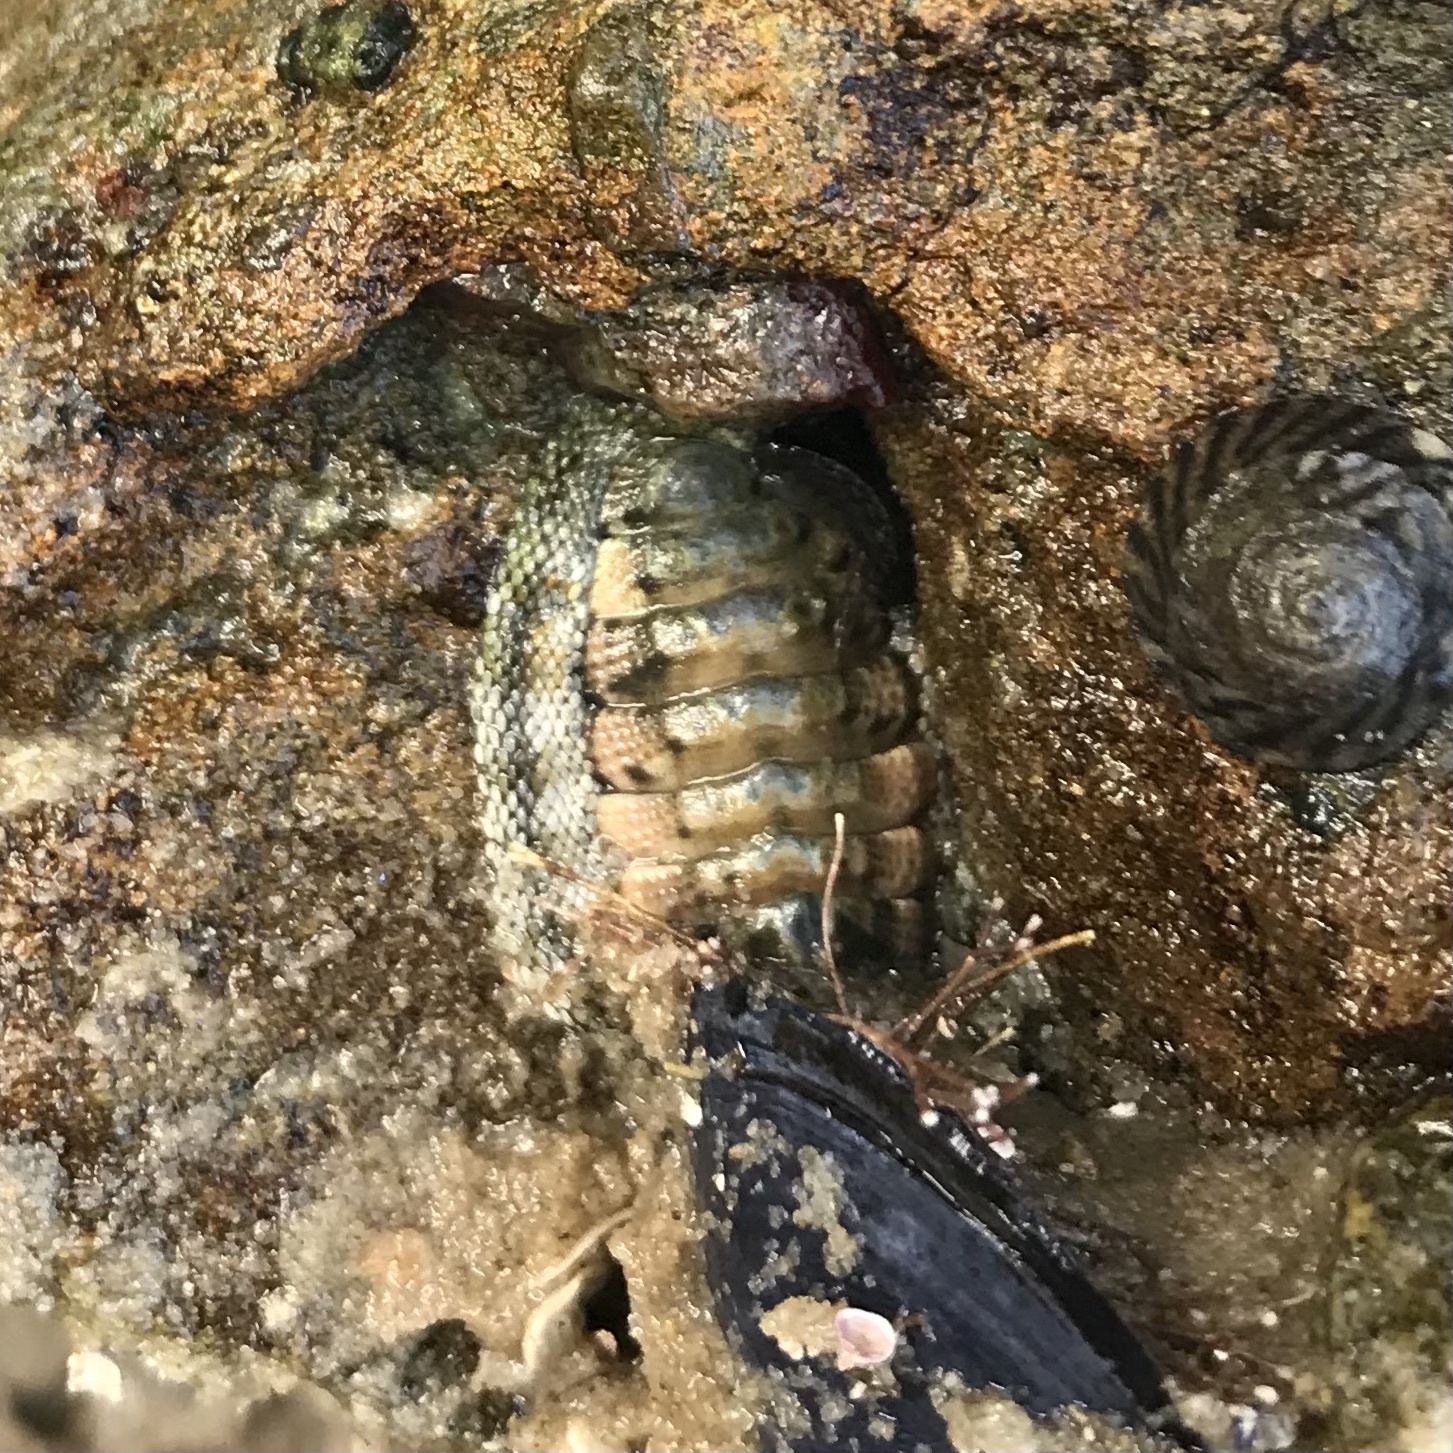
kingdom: Animalia
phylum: Mollusca
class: Polyplacophora
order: Chitonida
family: Chitonidae
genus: Sypharochiton
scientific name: Sypharochiton pelliserpentis
